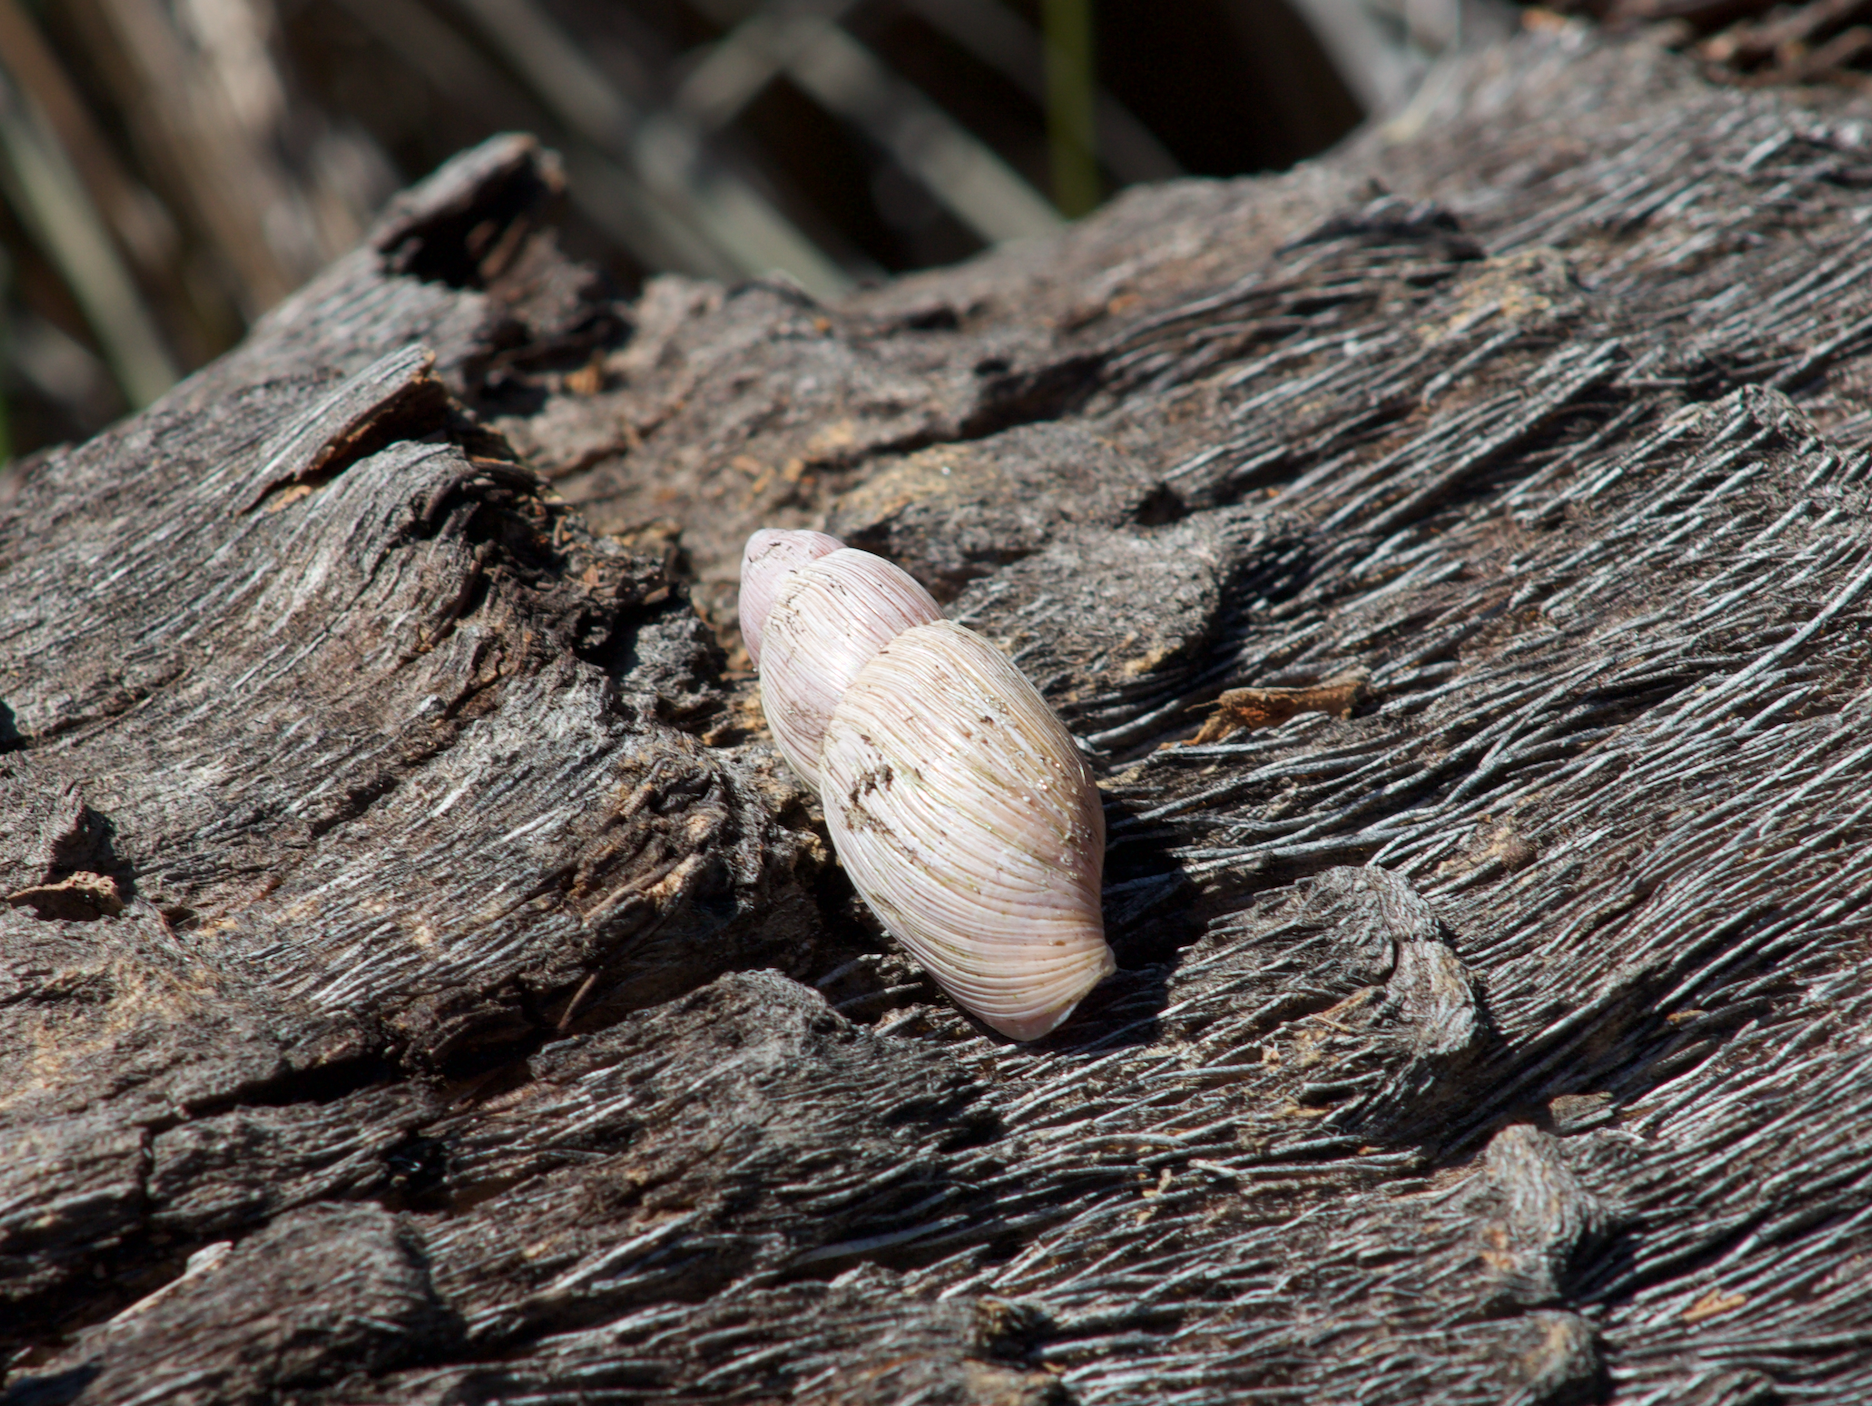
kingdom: Animalia
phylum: Mollusca
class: Gastropoda
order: Stylommatophora
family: Spiraxidae
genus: Euglandina
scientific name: Euglandina rosea
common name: Rosy wolfsnail
